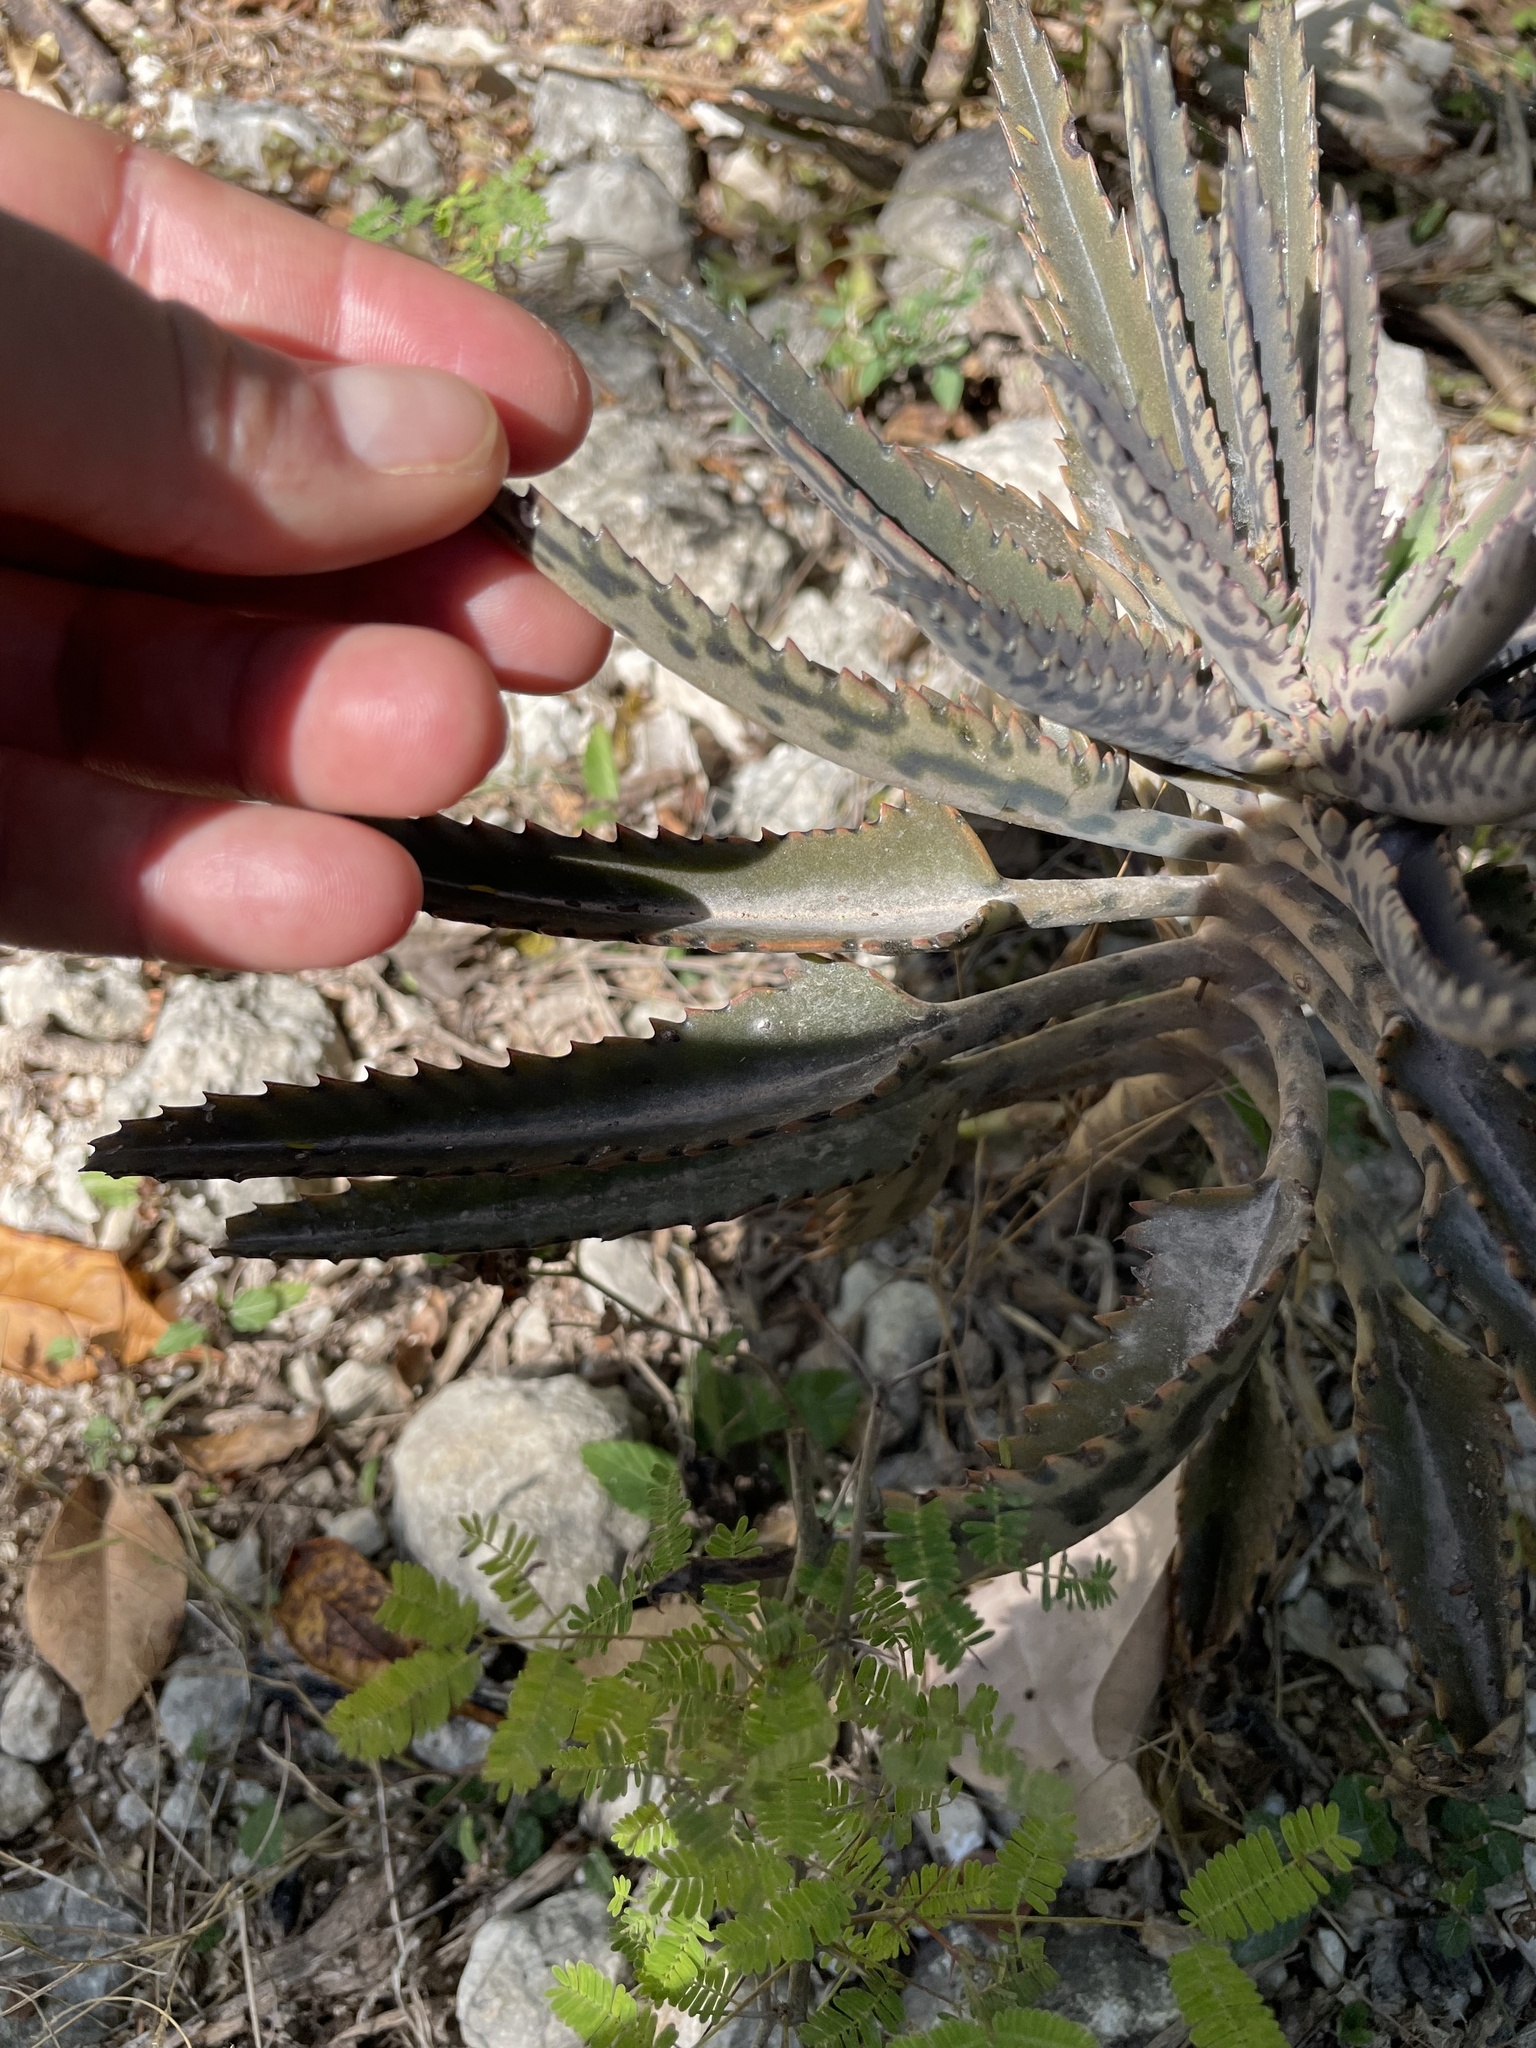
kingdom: Plantae
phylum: Tracheophyta
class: Magnoliopsida
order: Saxifragales
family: Crassulaceae
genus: Kalanchoe
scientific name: Kalanchoe houghtonii
